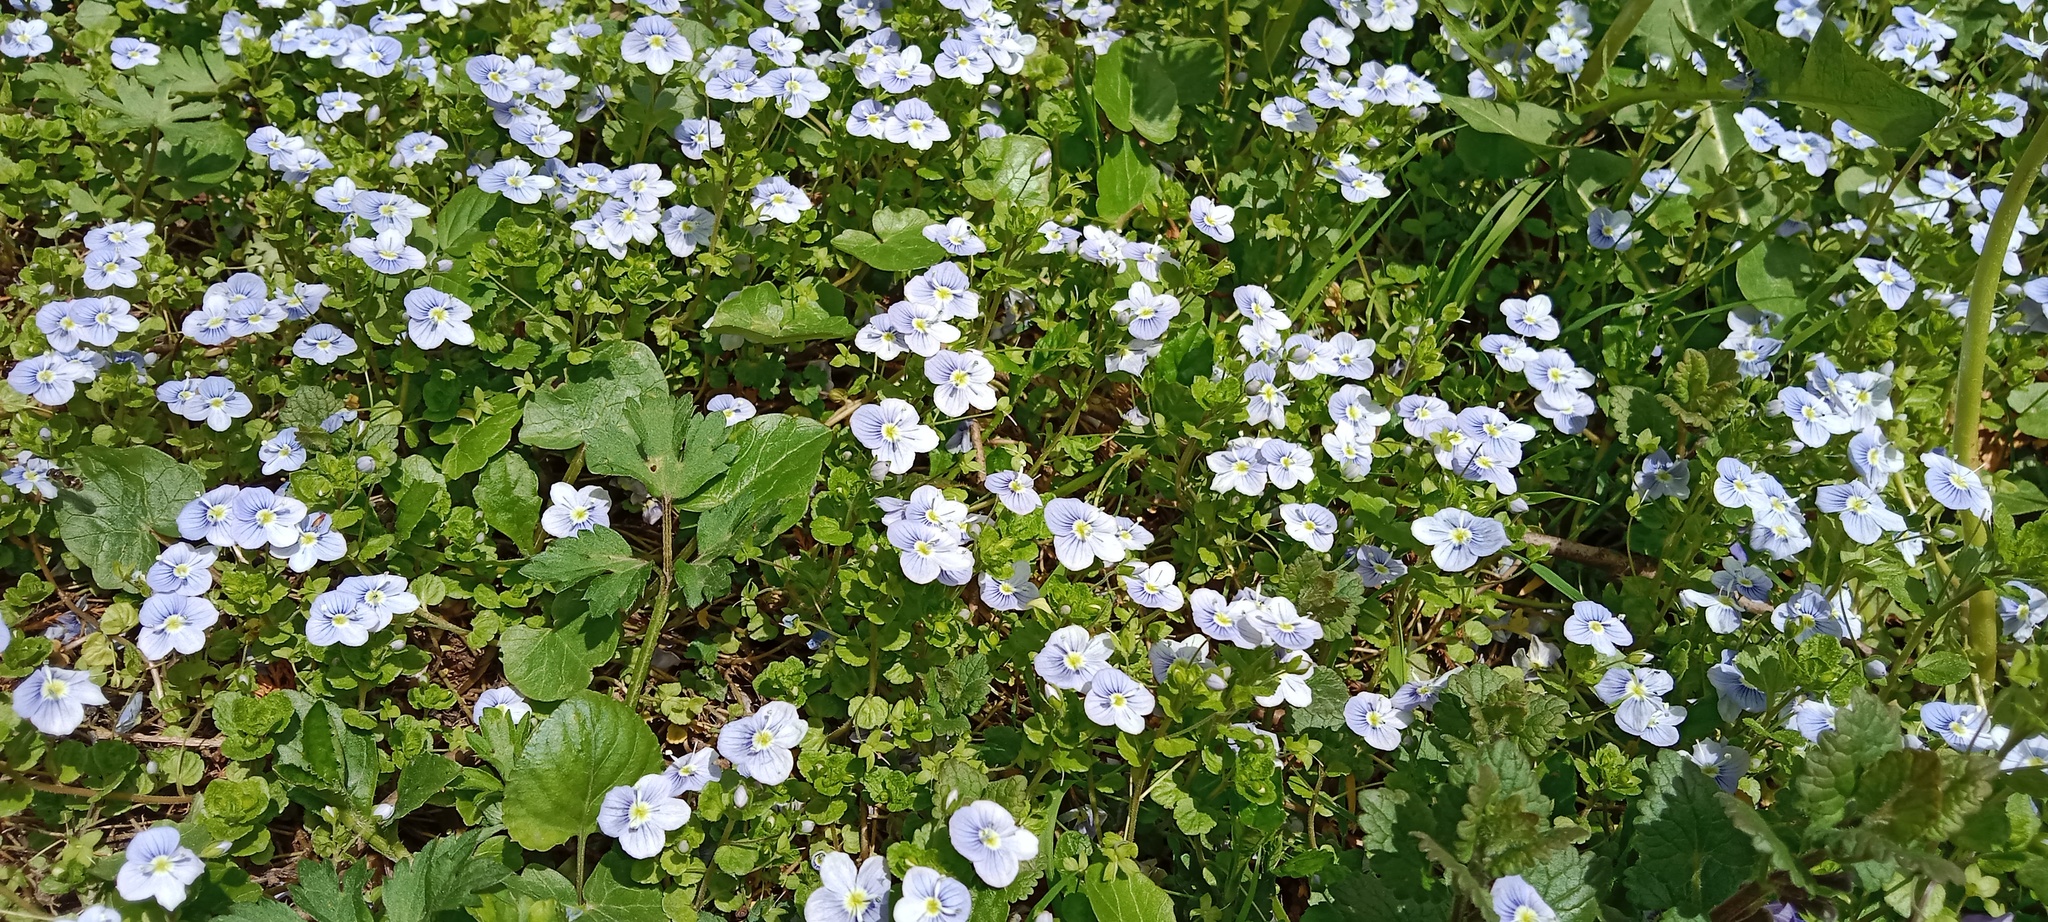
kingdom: Plantae
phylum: Tracheophyta
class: Magnoliopsida
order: Lamiales
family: Plantaginaceae
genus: Veronica
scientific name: Veronica filiformis
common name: Slender speedwell
